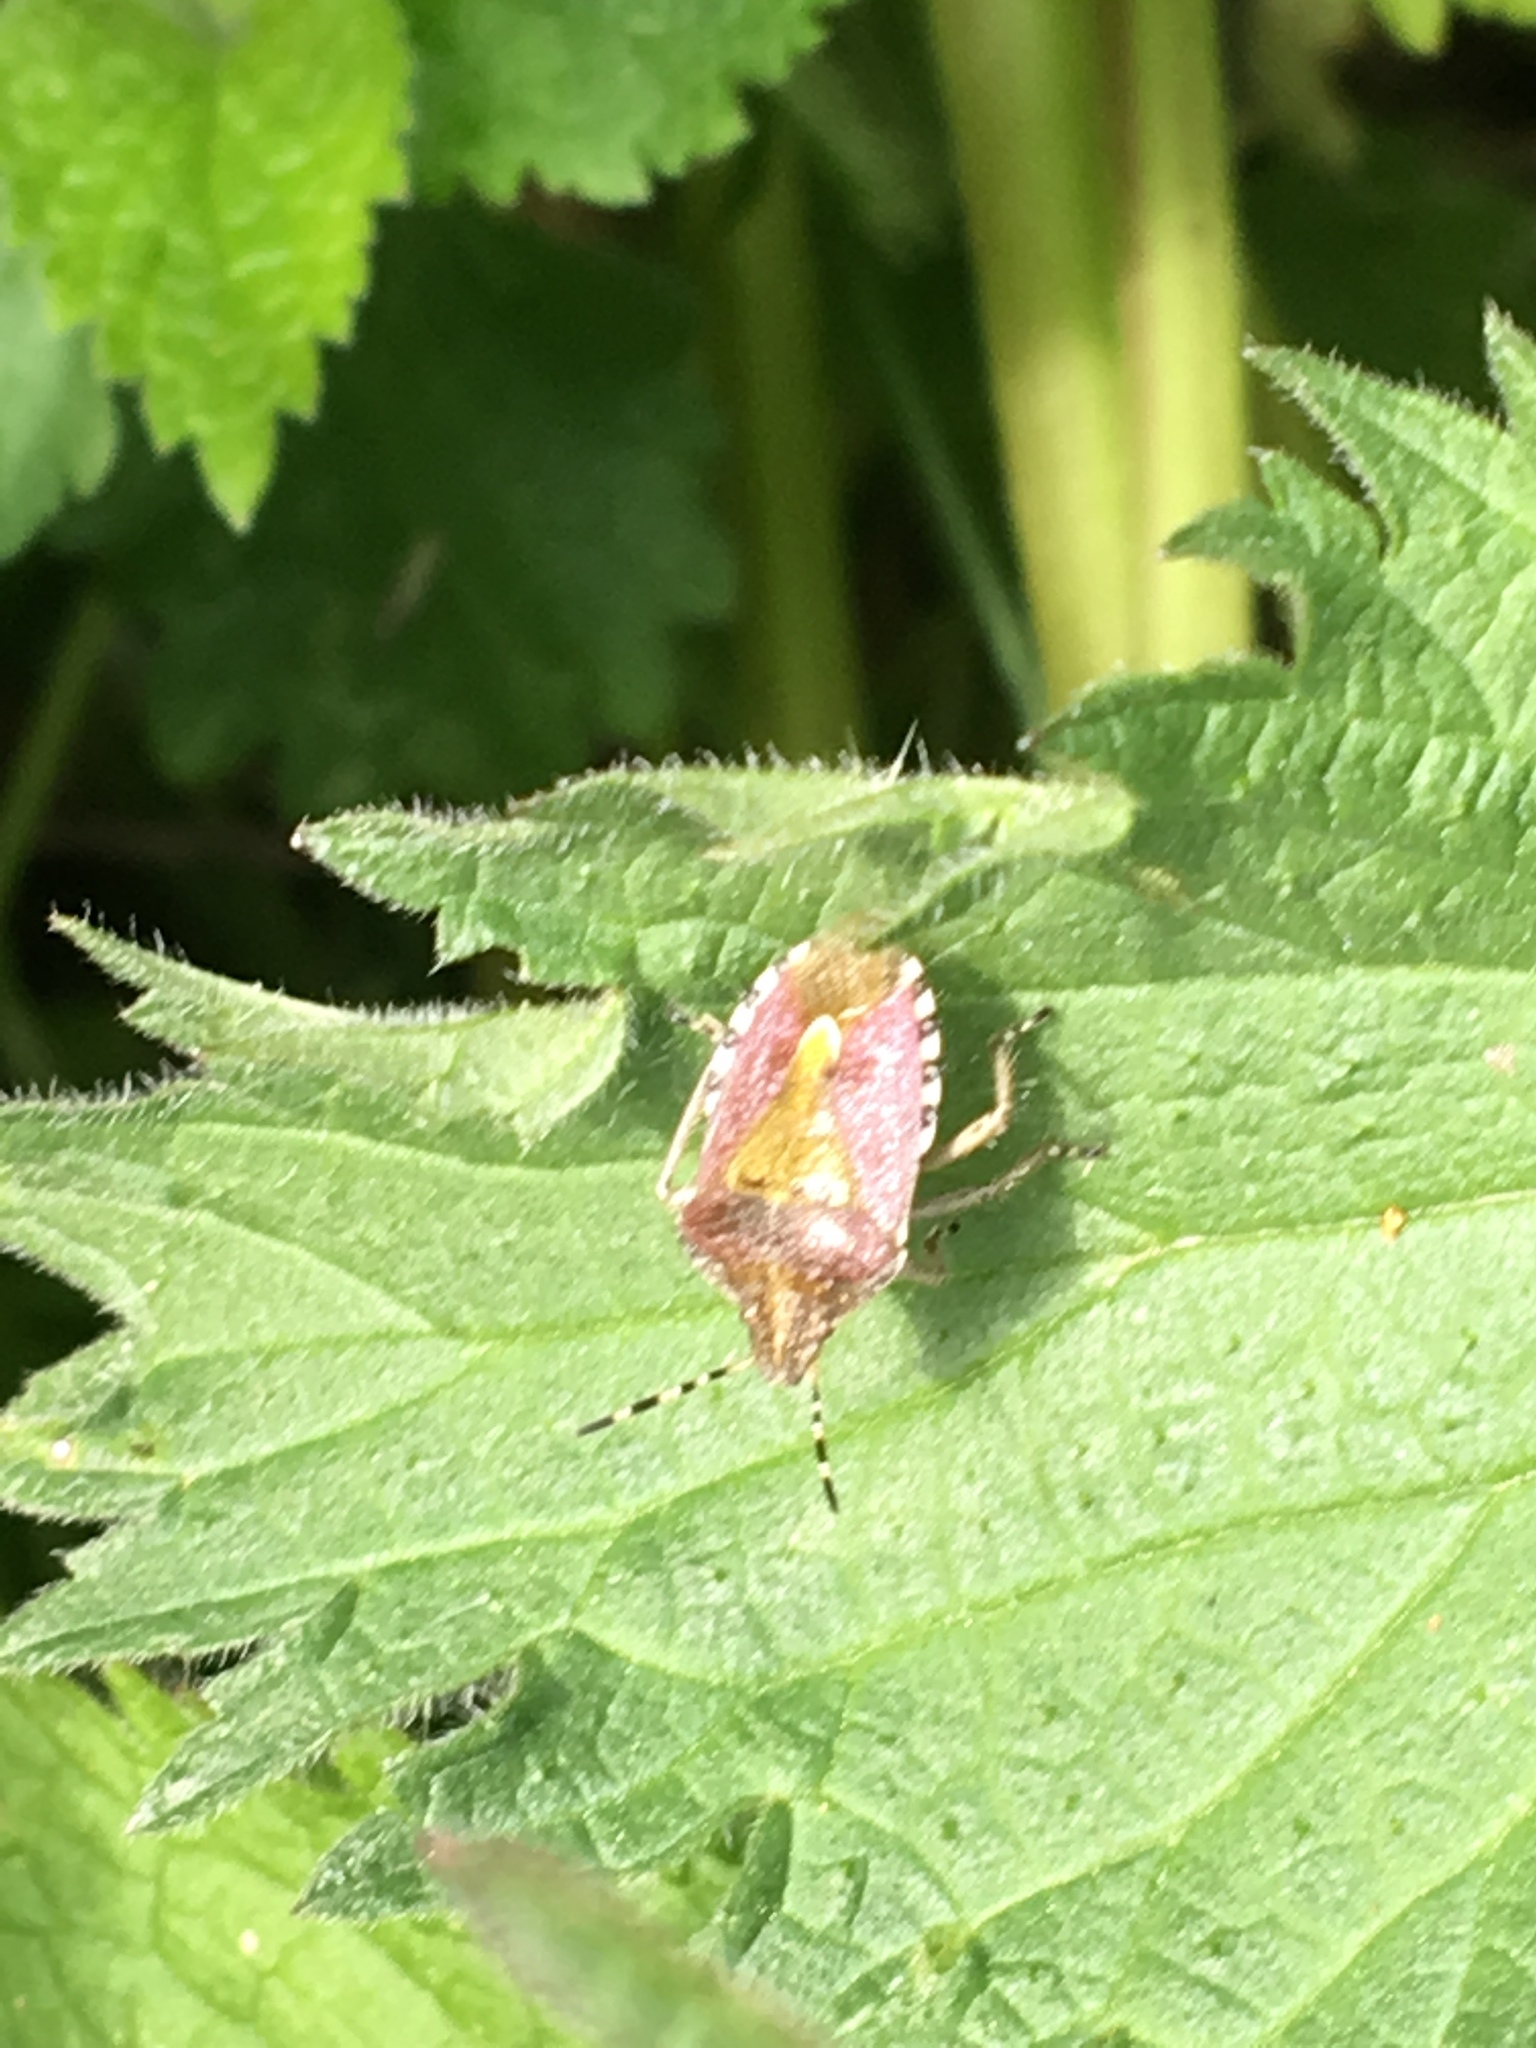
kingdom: Animalia
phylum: Arthropoda
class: Insecta
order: Hemiptera
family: Pentatomidae
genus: Dolycoris
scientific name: Dolycoris baccarum
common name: Sloe bug
